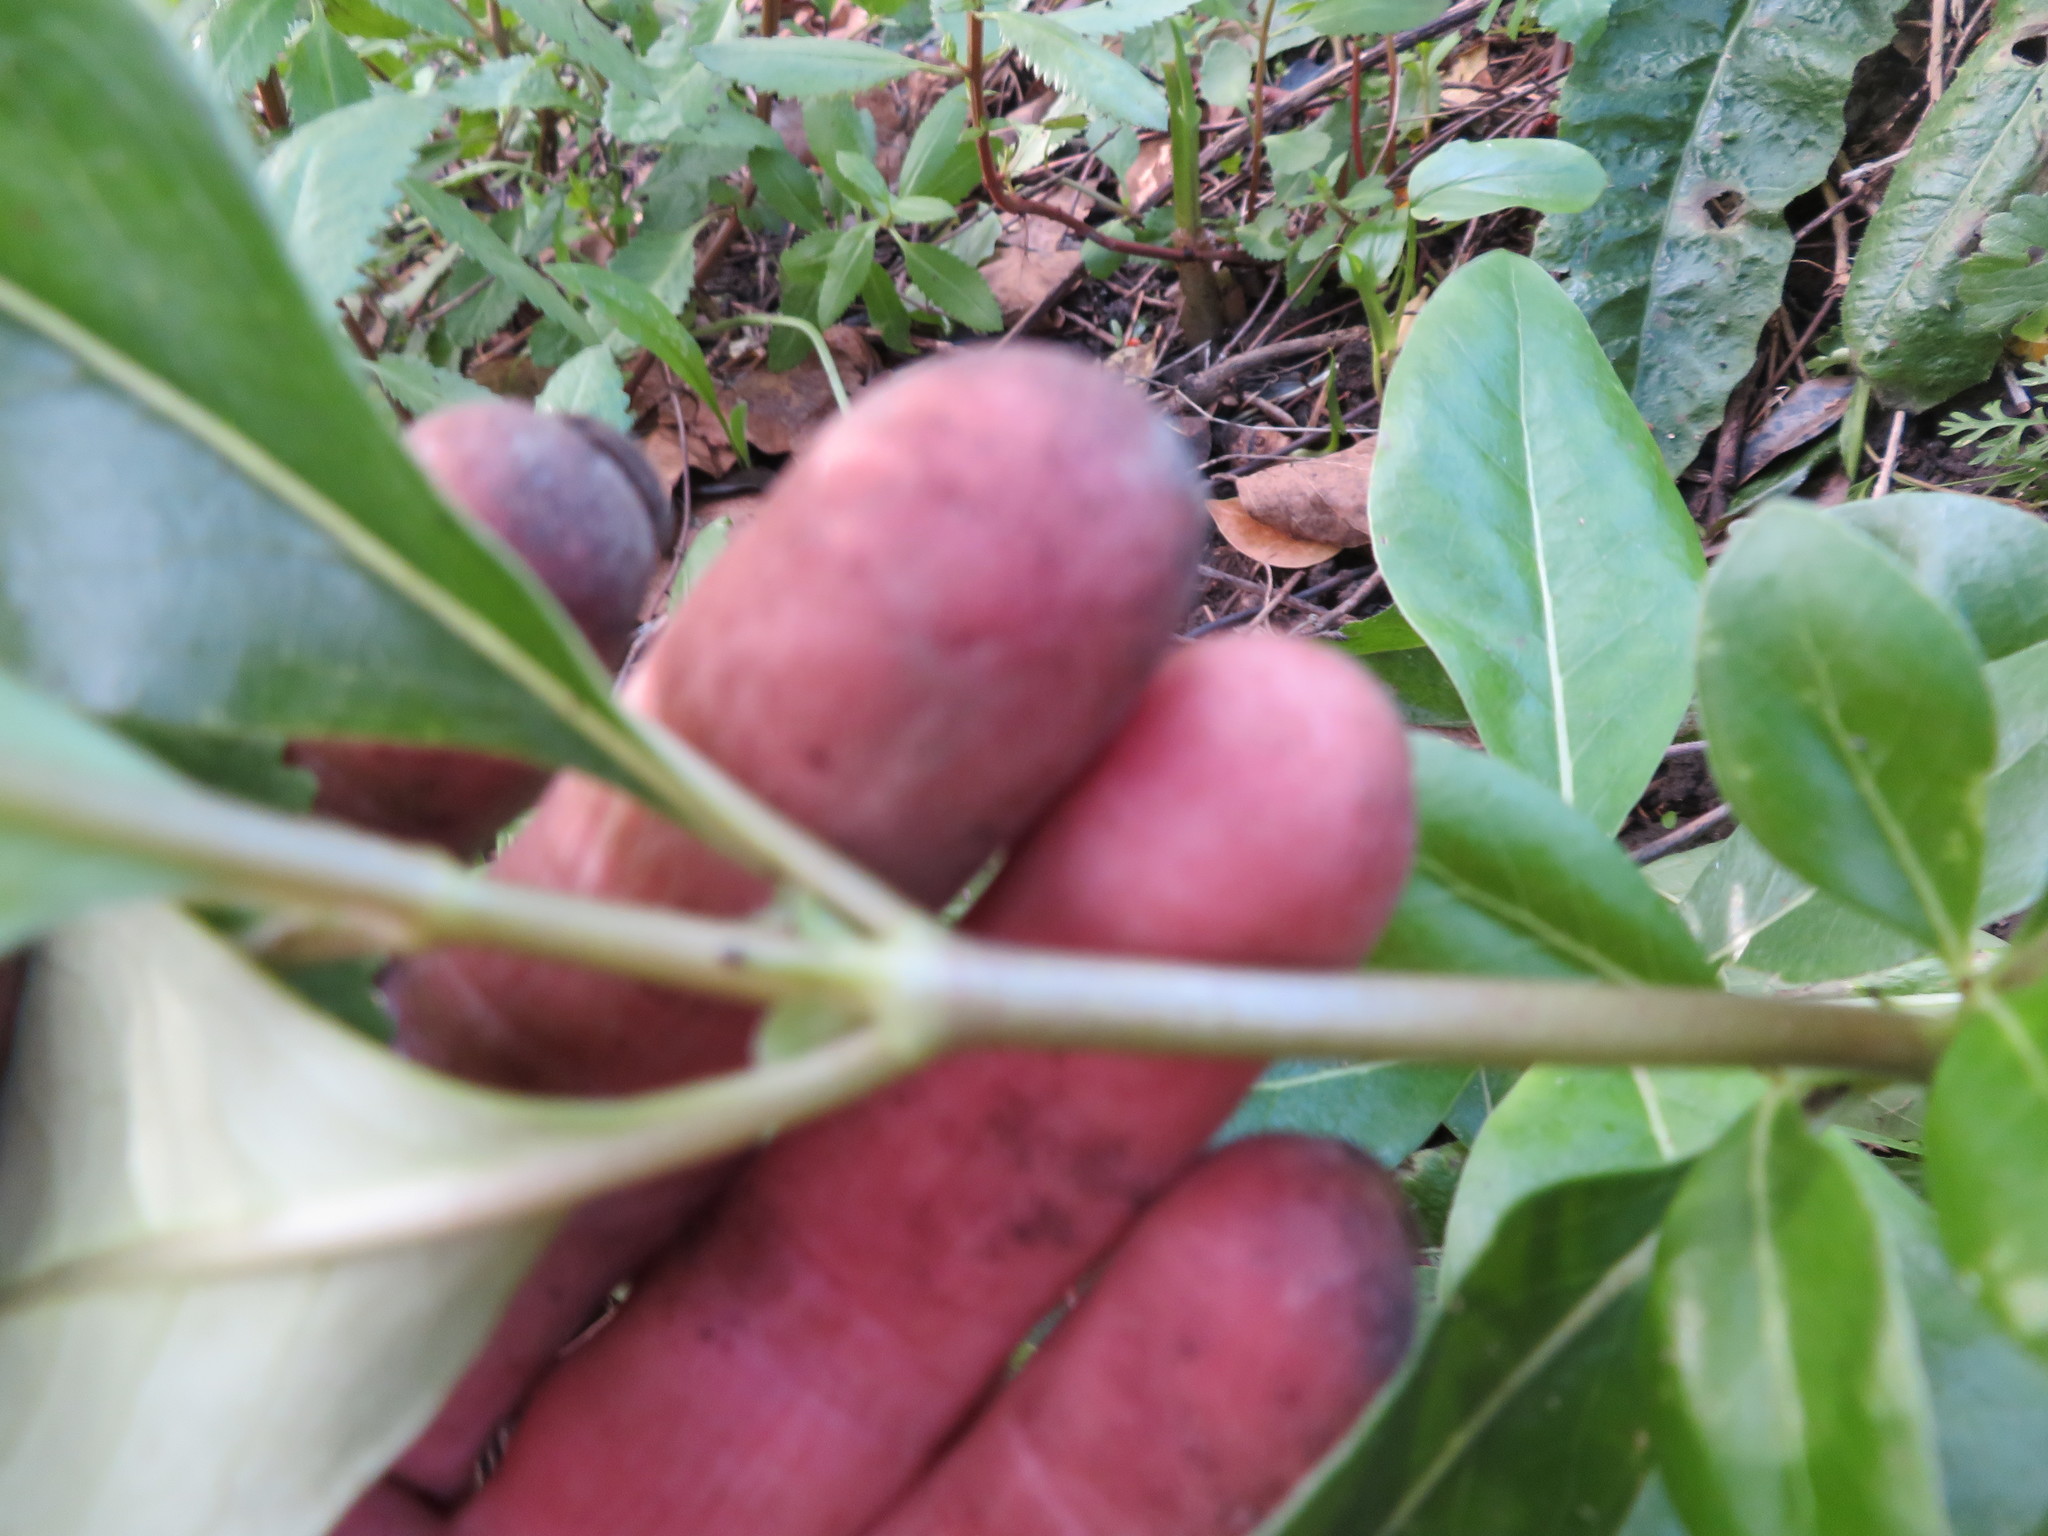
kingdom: Plantae
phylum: Tracheophyta
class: Magnoliopsida
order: Gentianales
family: Rubiaceae
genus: Coprosma
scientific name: Coprosma robusta
